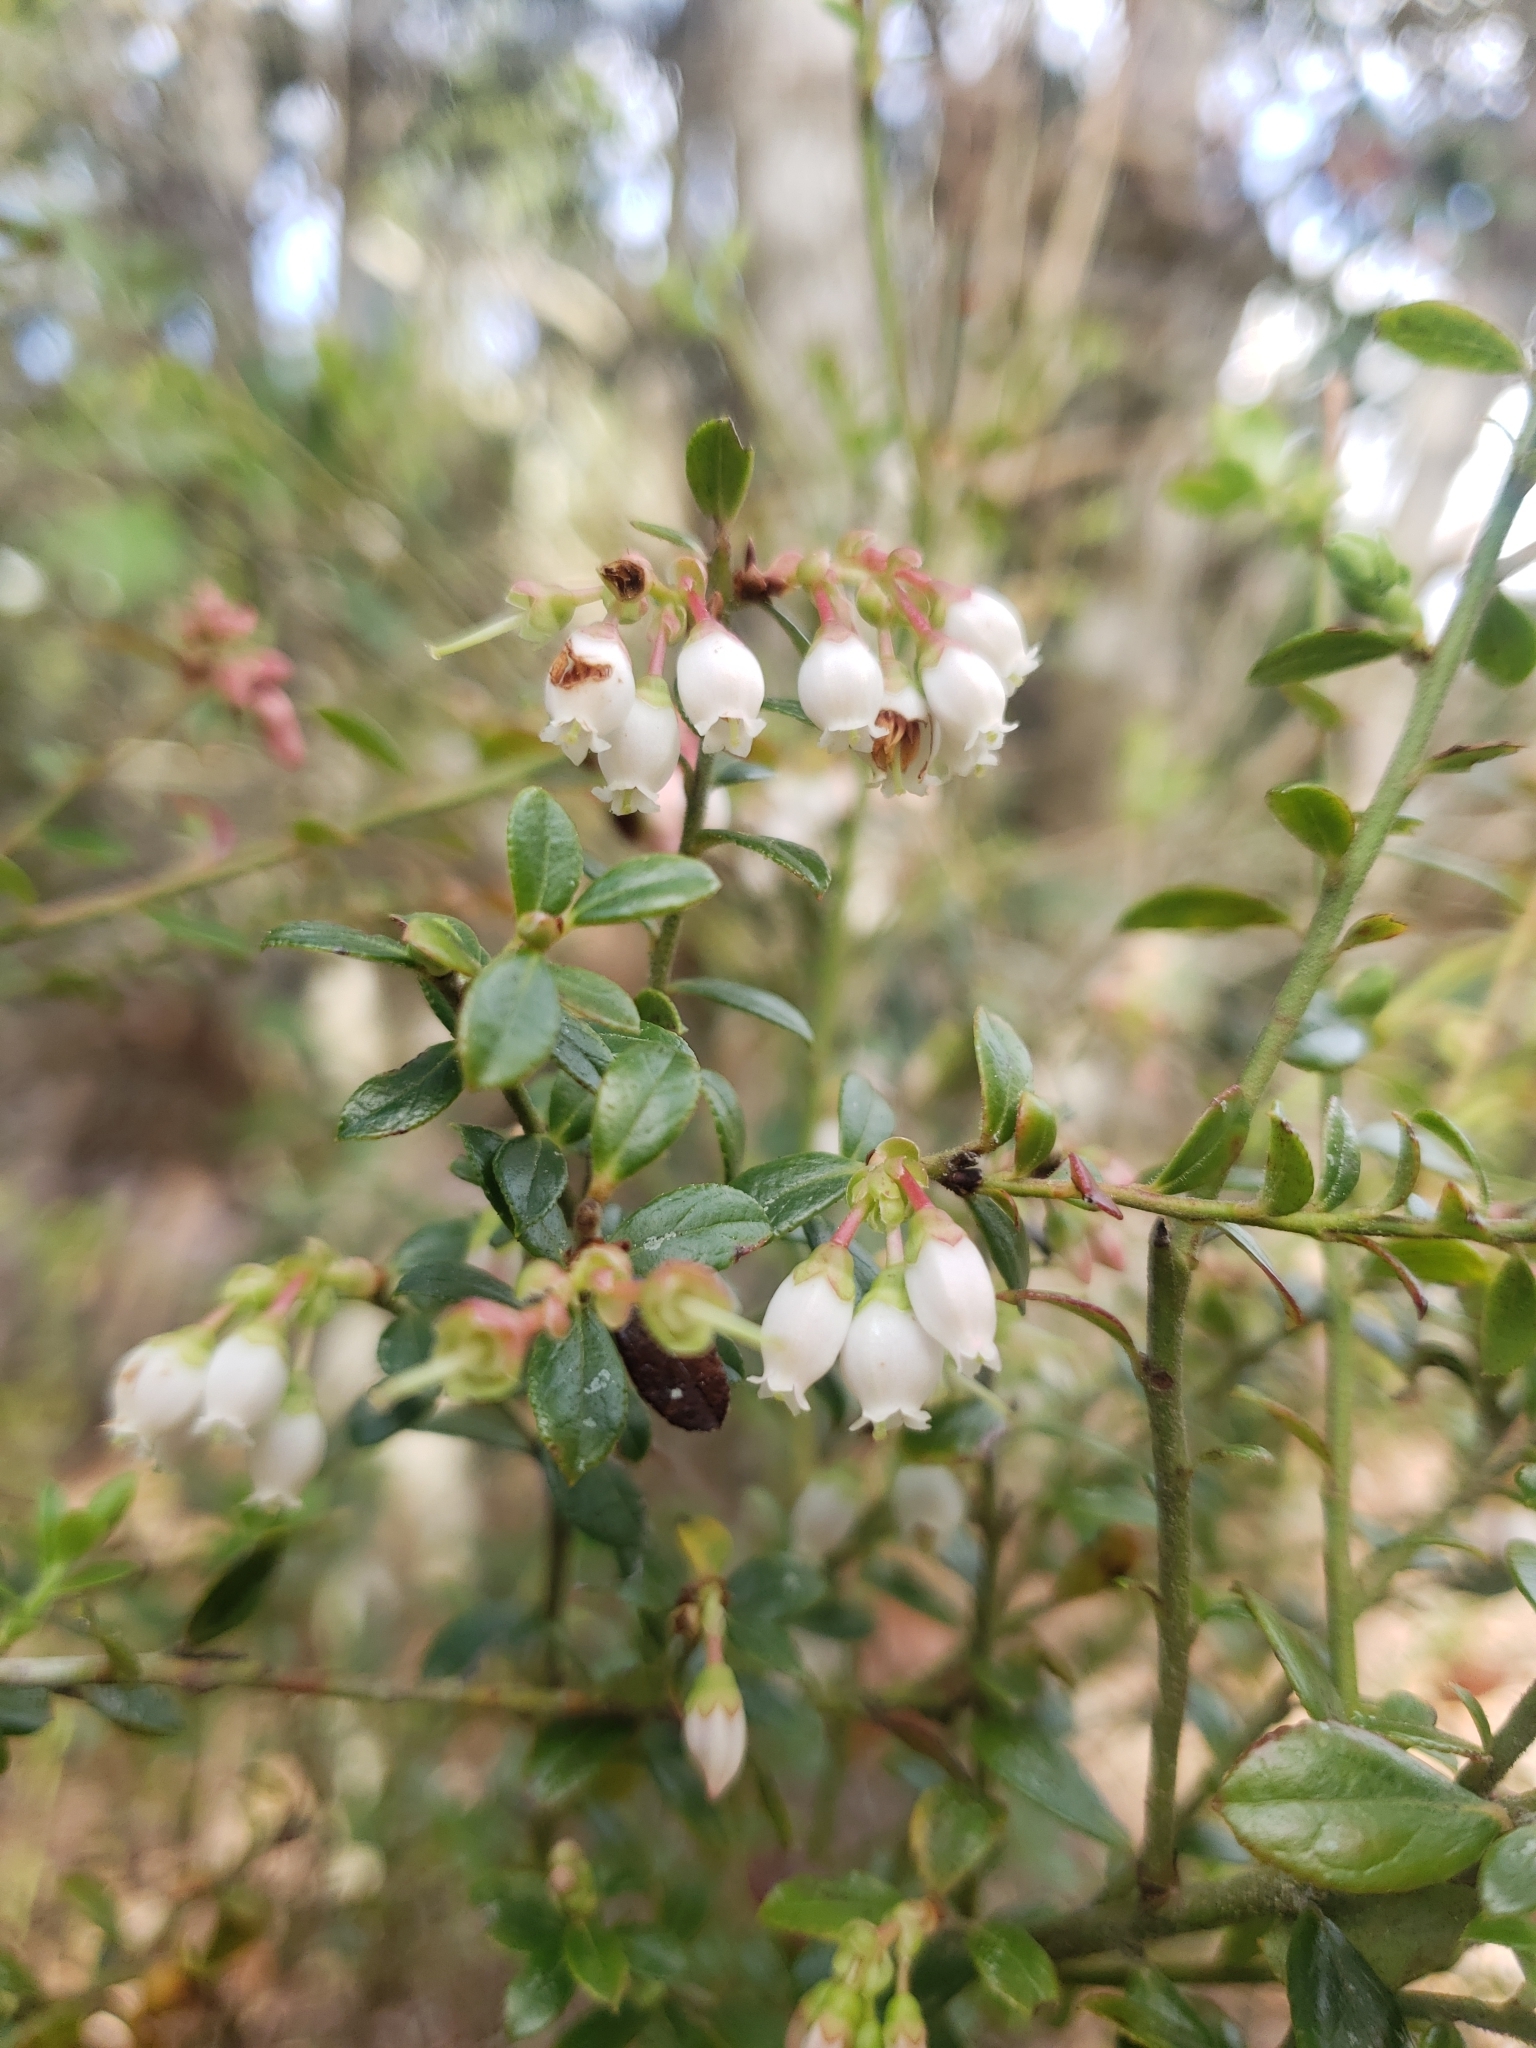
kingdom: Plantae
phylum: Tracheophyta
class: Magnoliopsida
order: Ericales
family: Ericaceae
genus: Vaccinium
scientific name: Vaccinium myrsinites
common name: Evergreen blueberry
